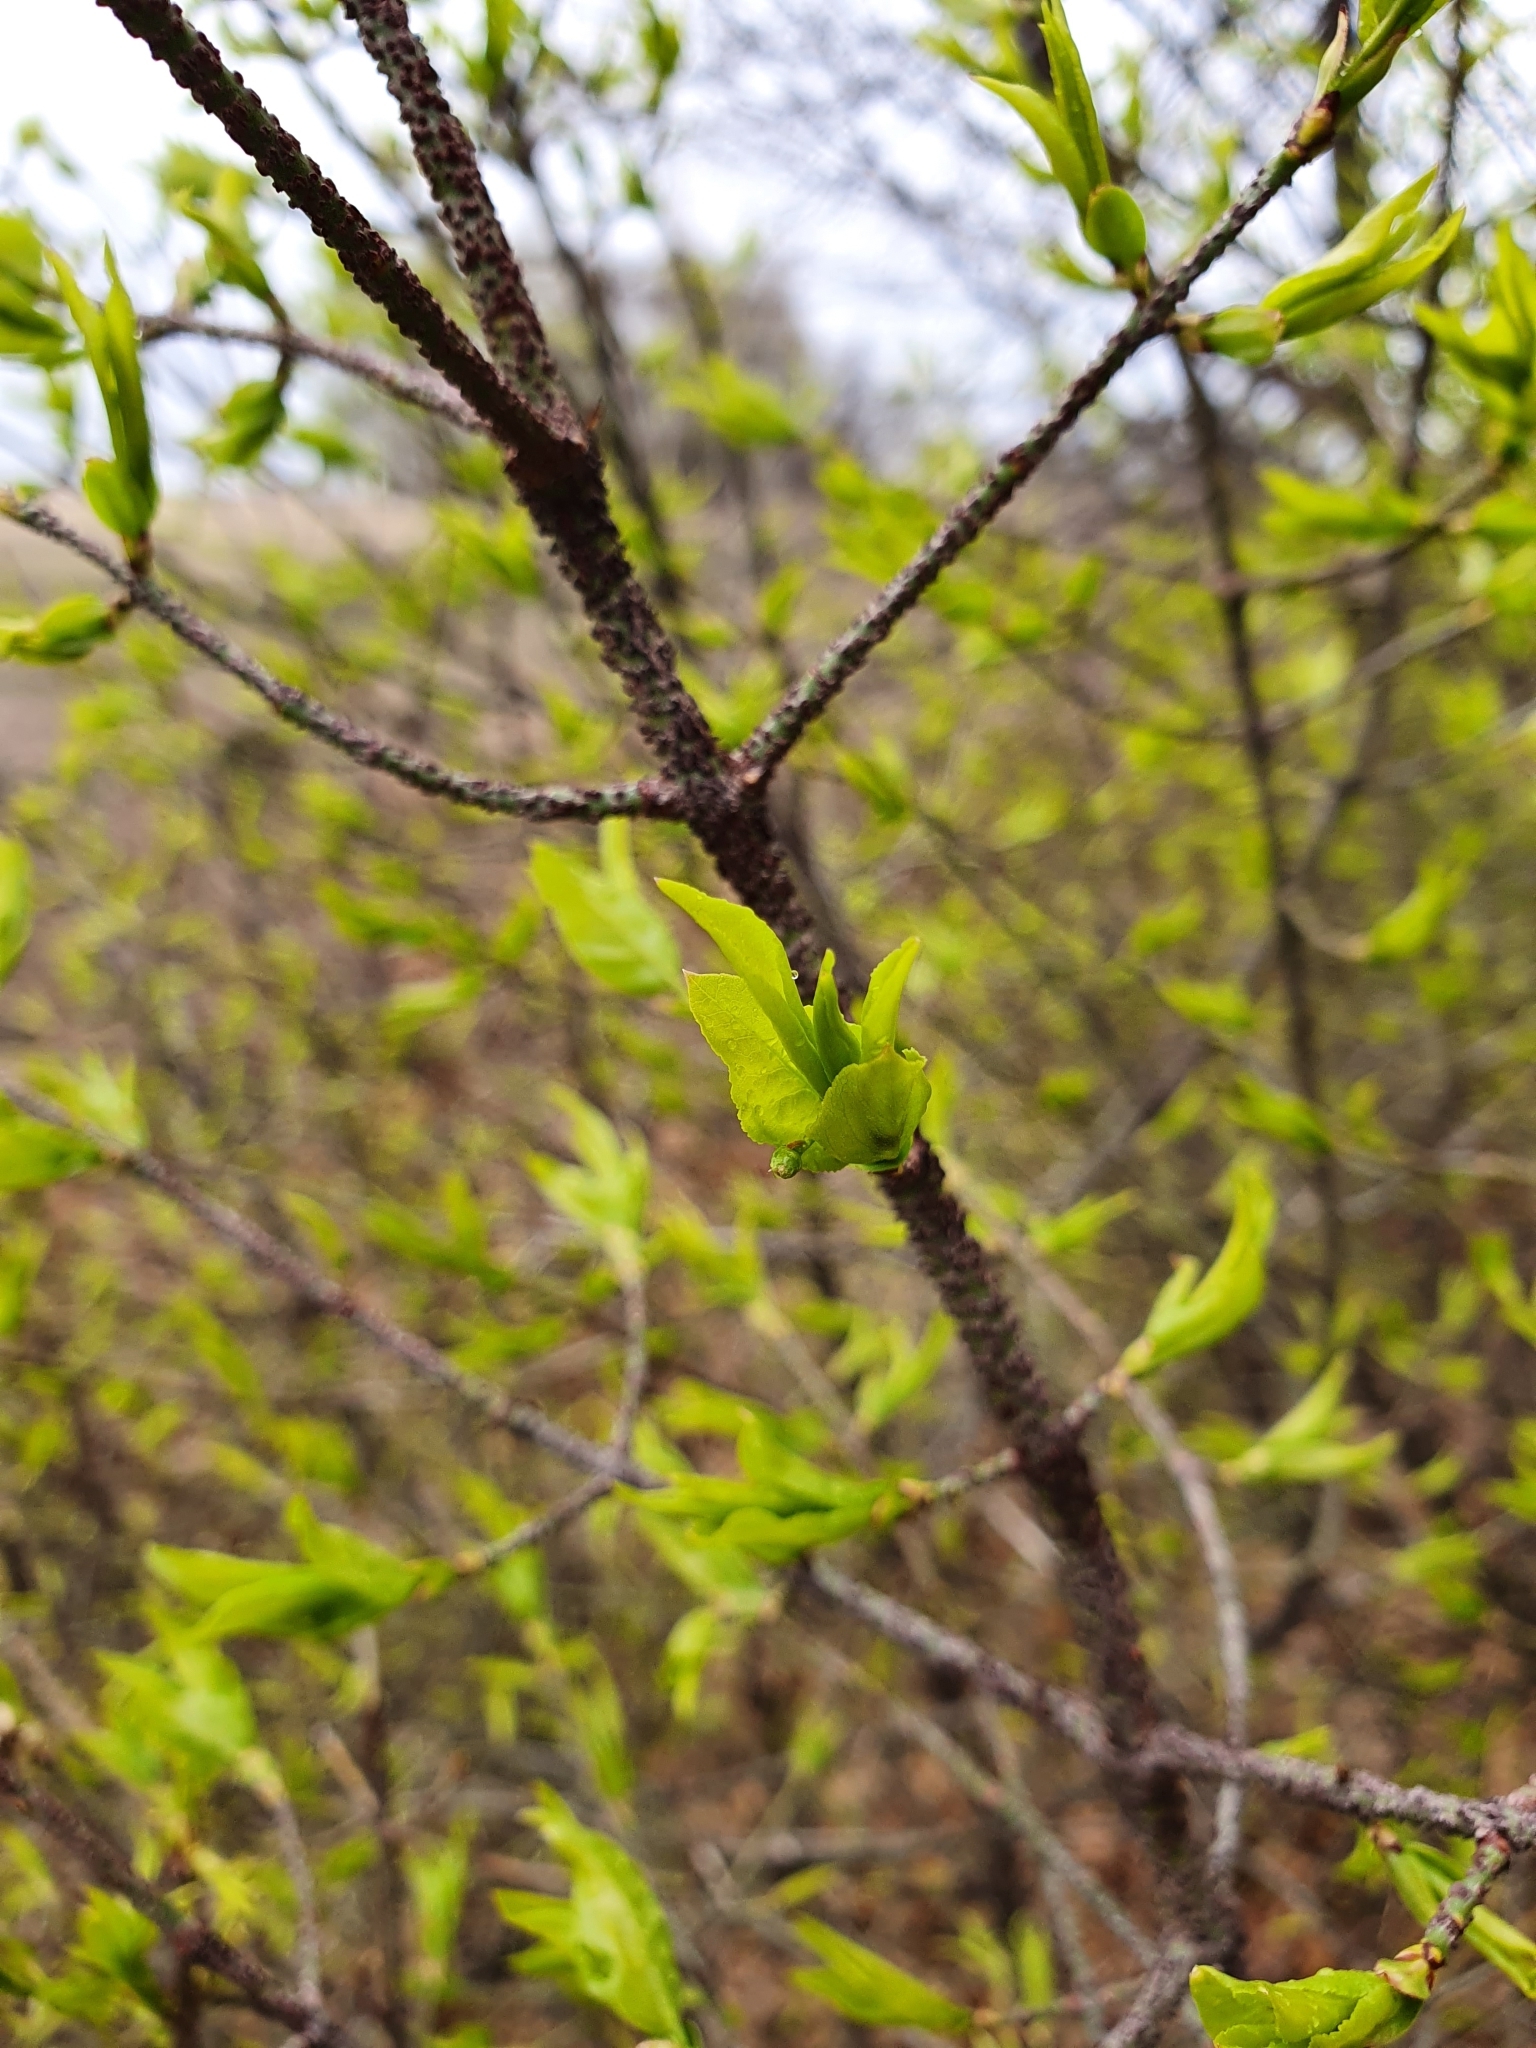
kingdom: Plantae
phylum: Tracheophyta
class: Magnoliopsida
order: Celastrales
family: Celastraceae
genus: Euonymus
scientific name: Euonymus verrucosus
